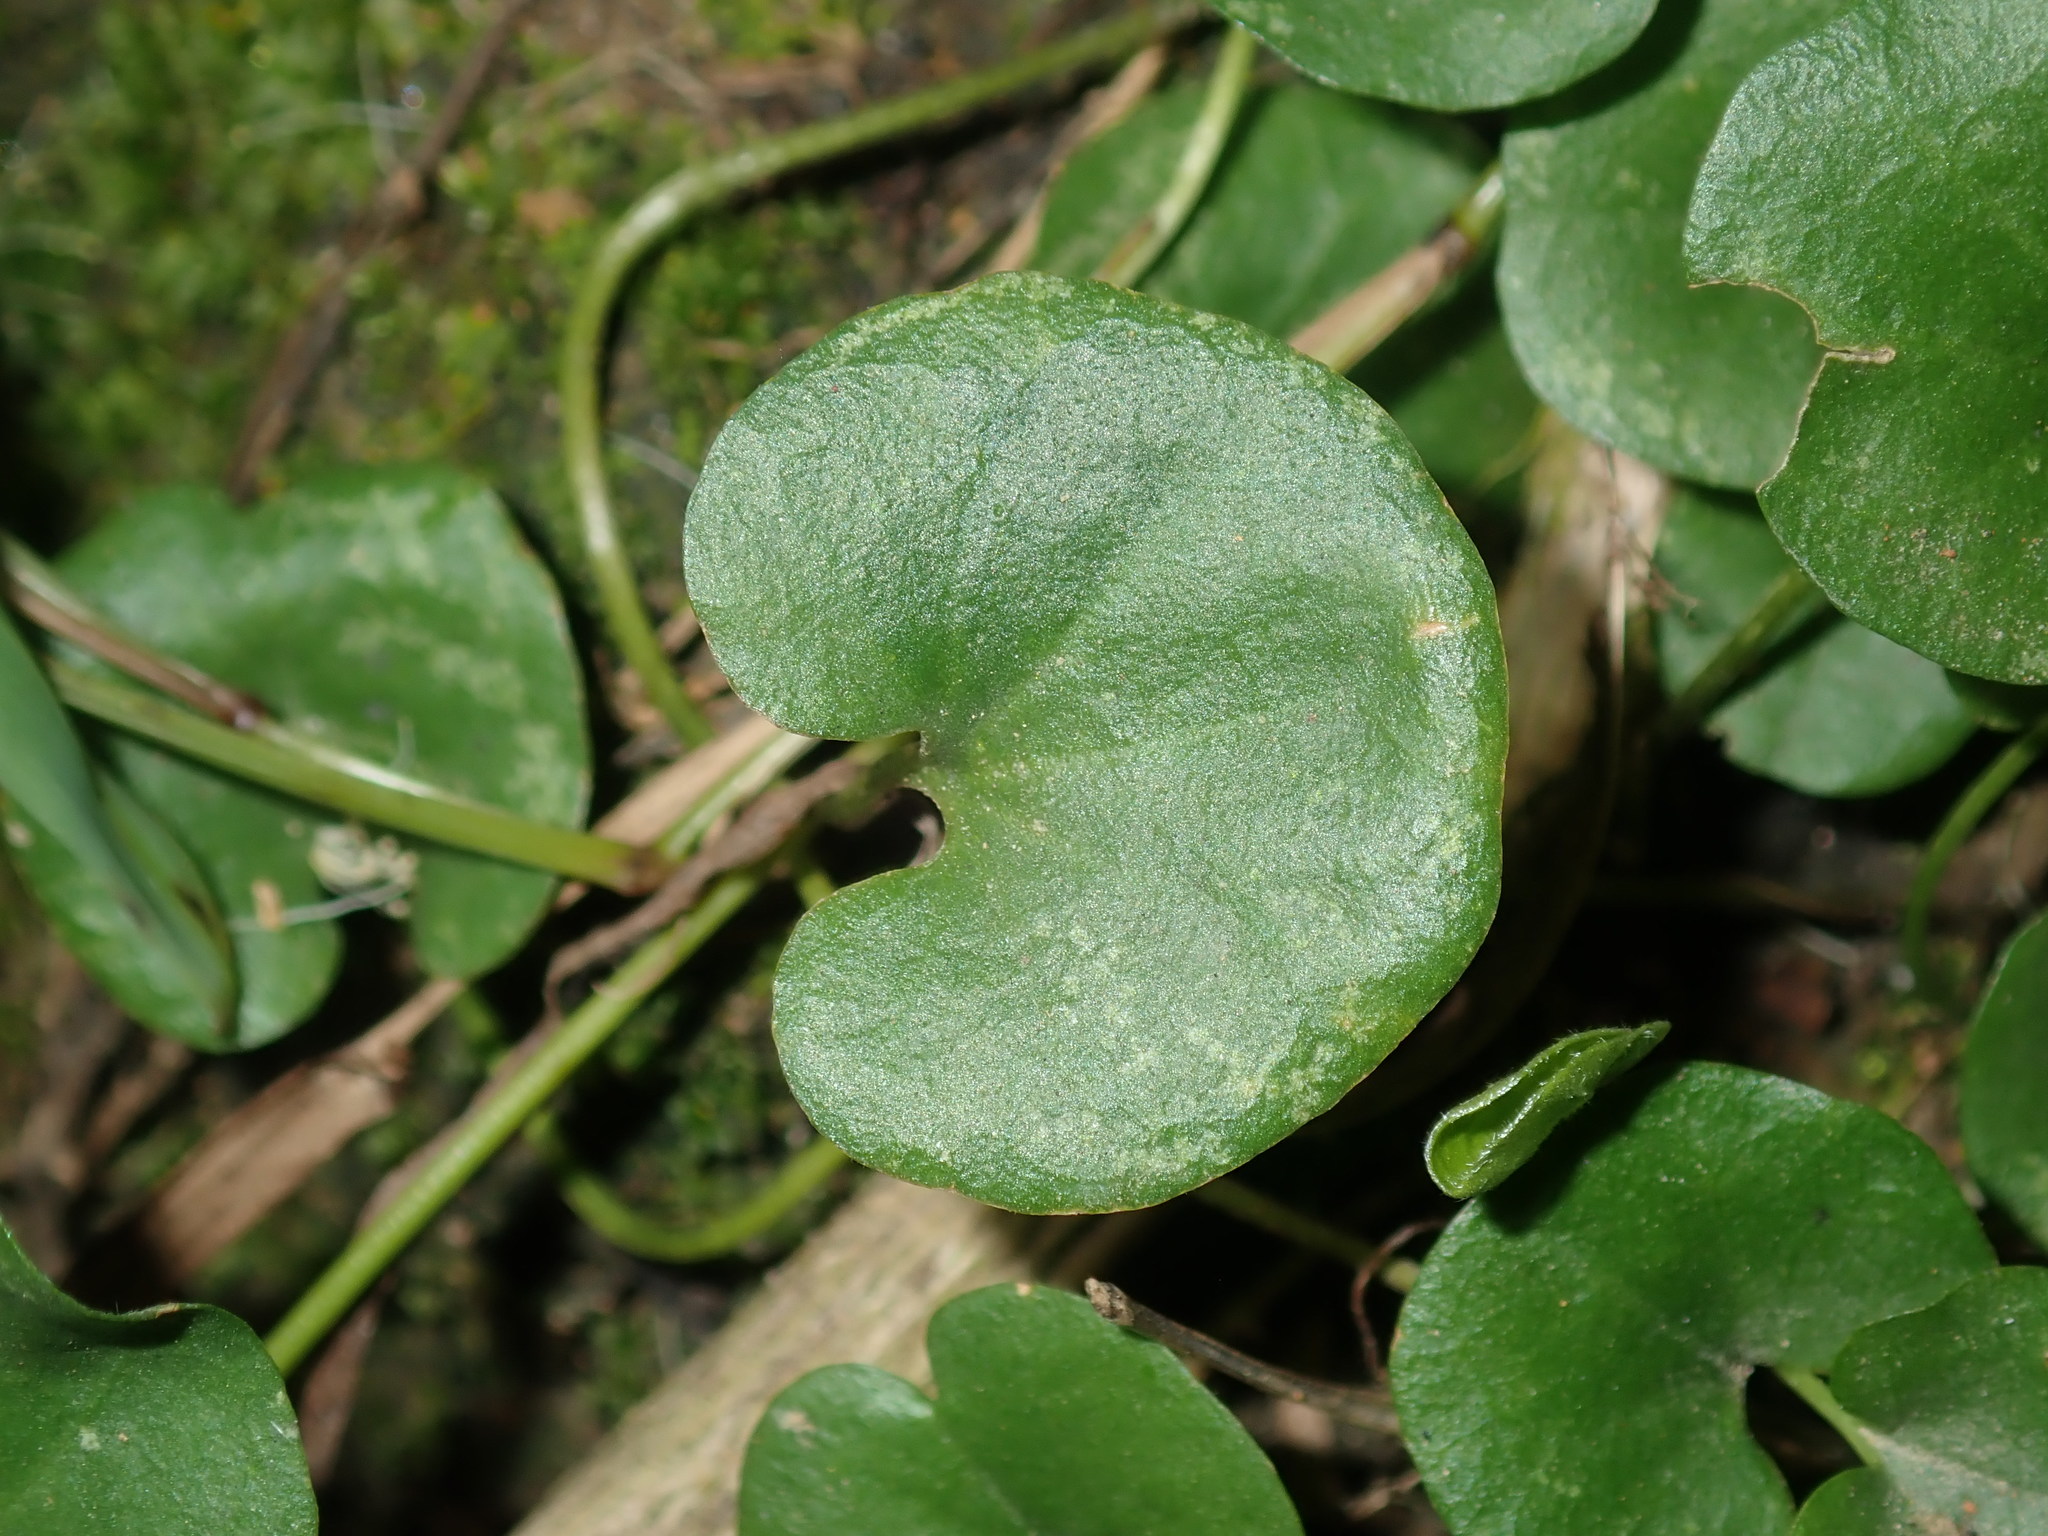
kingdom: Plantae
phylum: Tracheophyta
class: Magnoliopsida
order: Solanales
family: Convolvulaceae
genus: Dichondra
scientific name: Dichondra repens
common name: Kidneyweed
